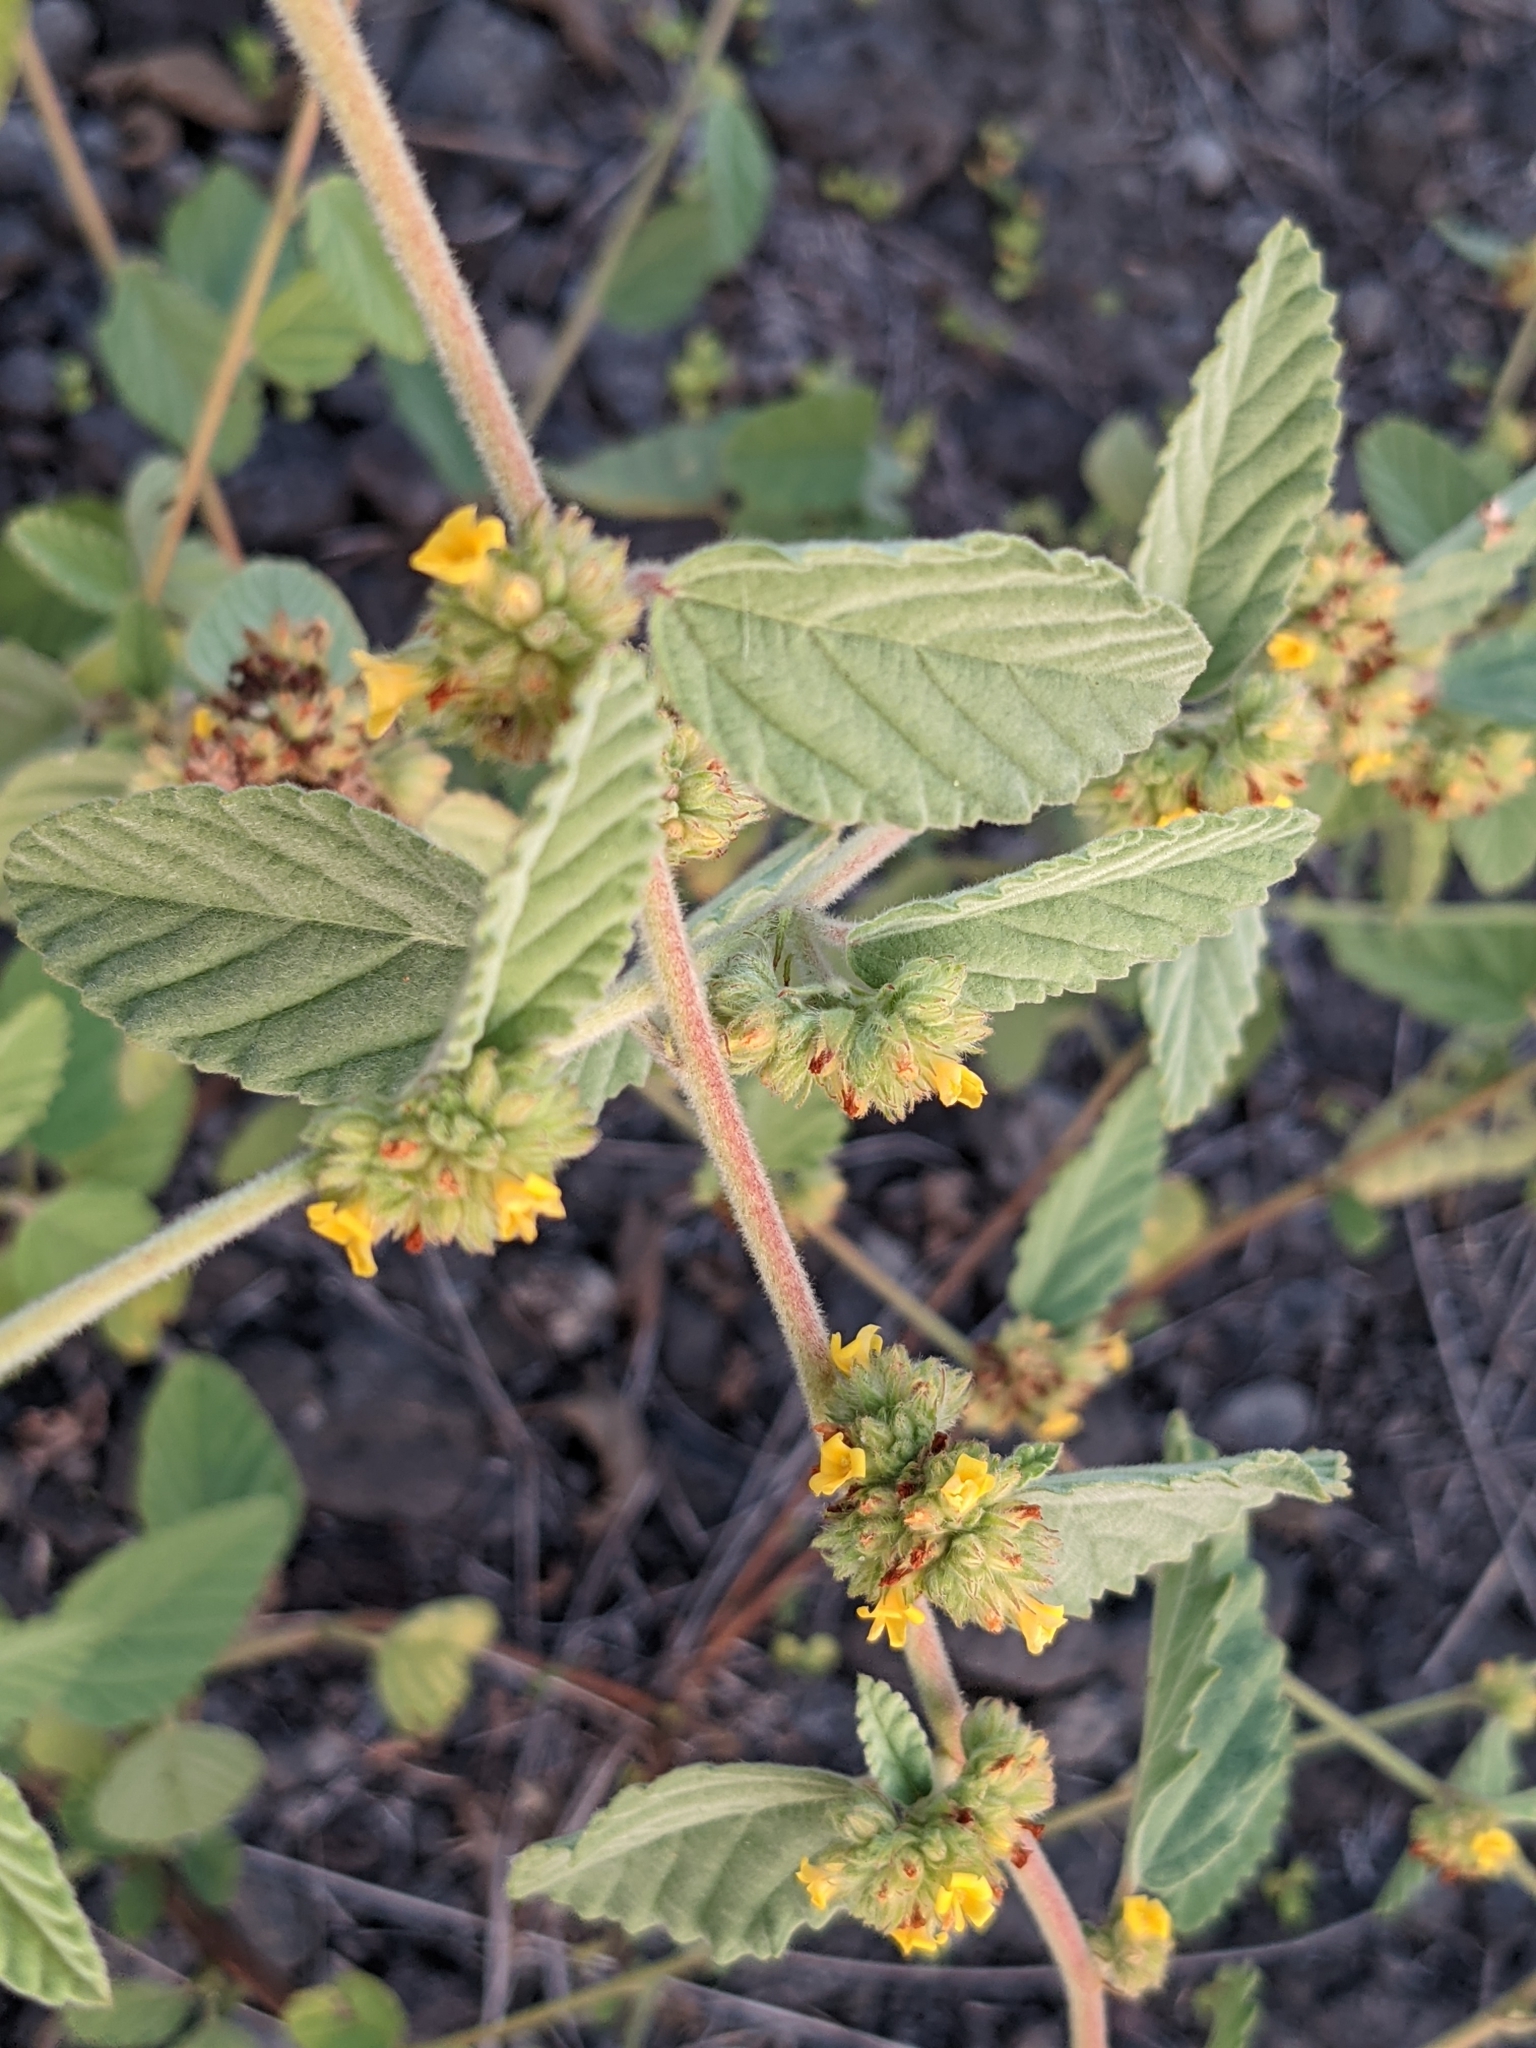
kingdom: Plantae
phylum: Tracheophyta
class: Magnoliopsida
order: Malvales
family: Malvaceae
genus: Waltheria
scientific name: Waltheria indica
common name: Leather-coat
